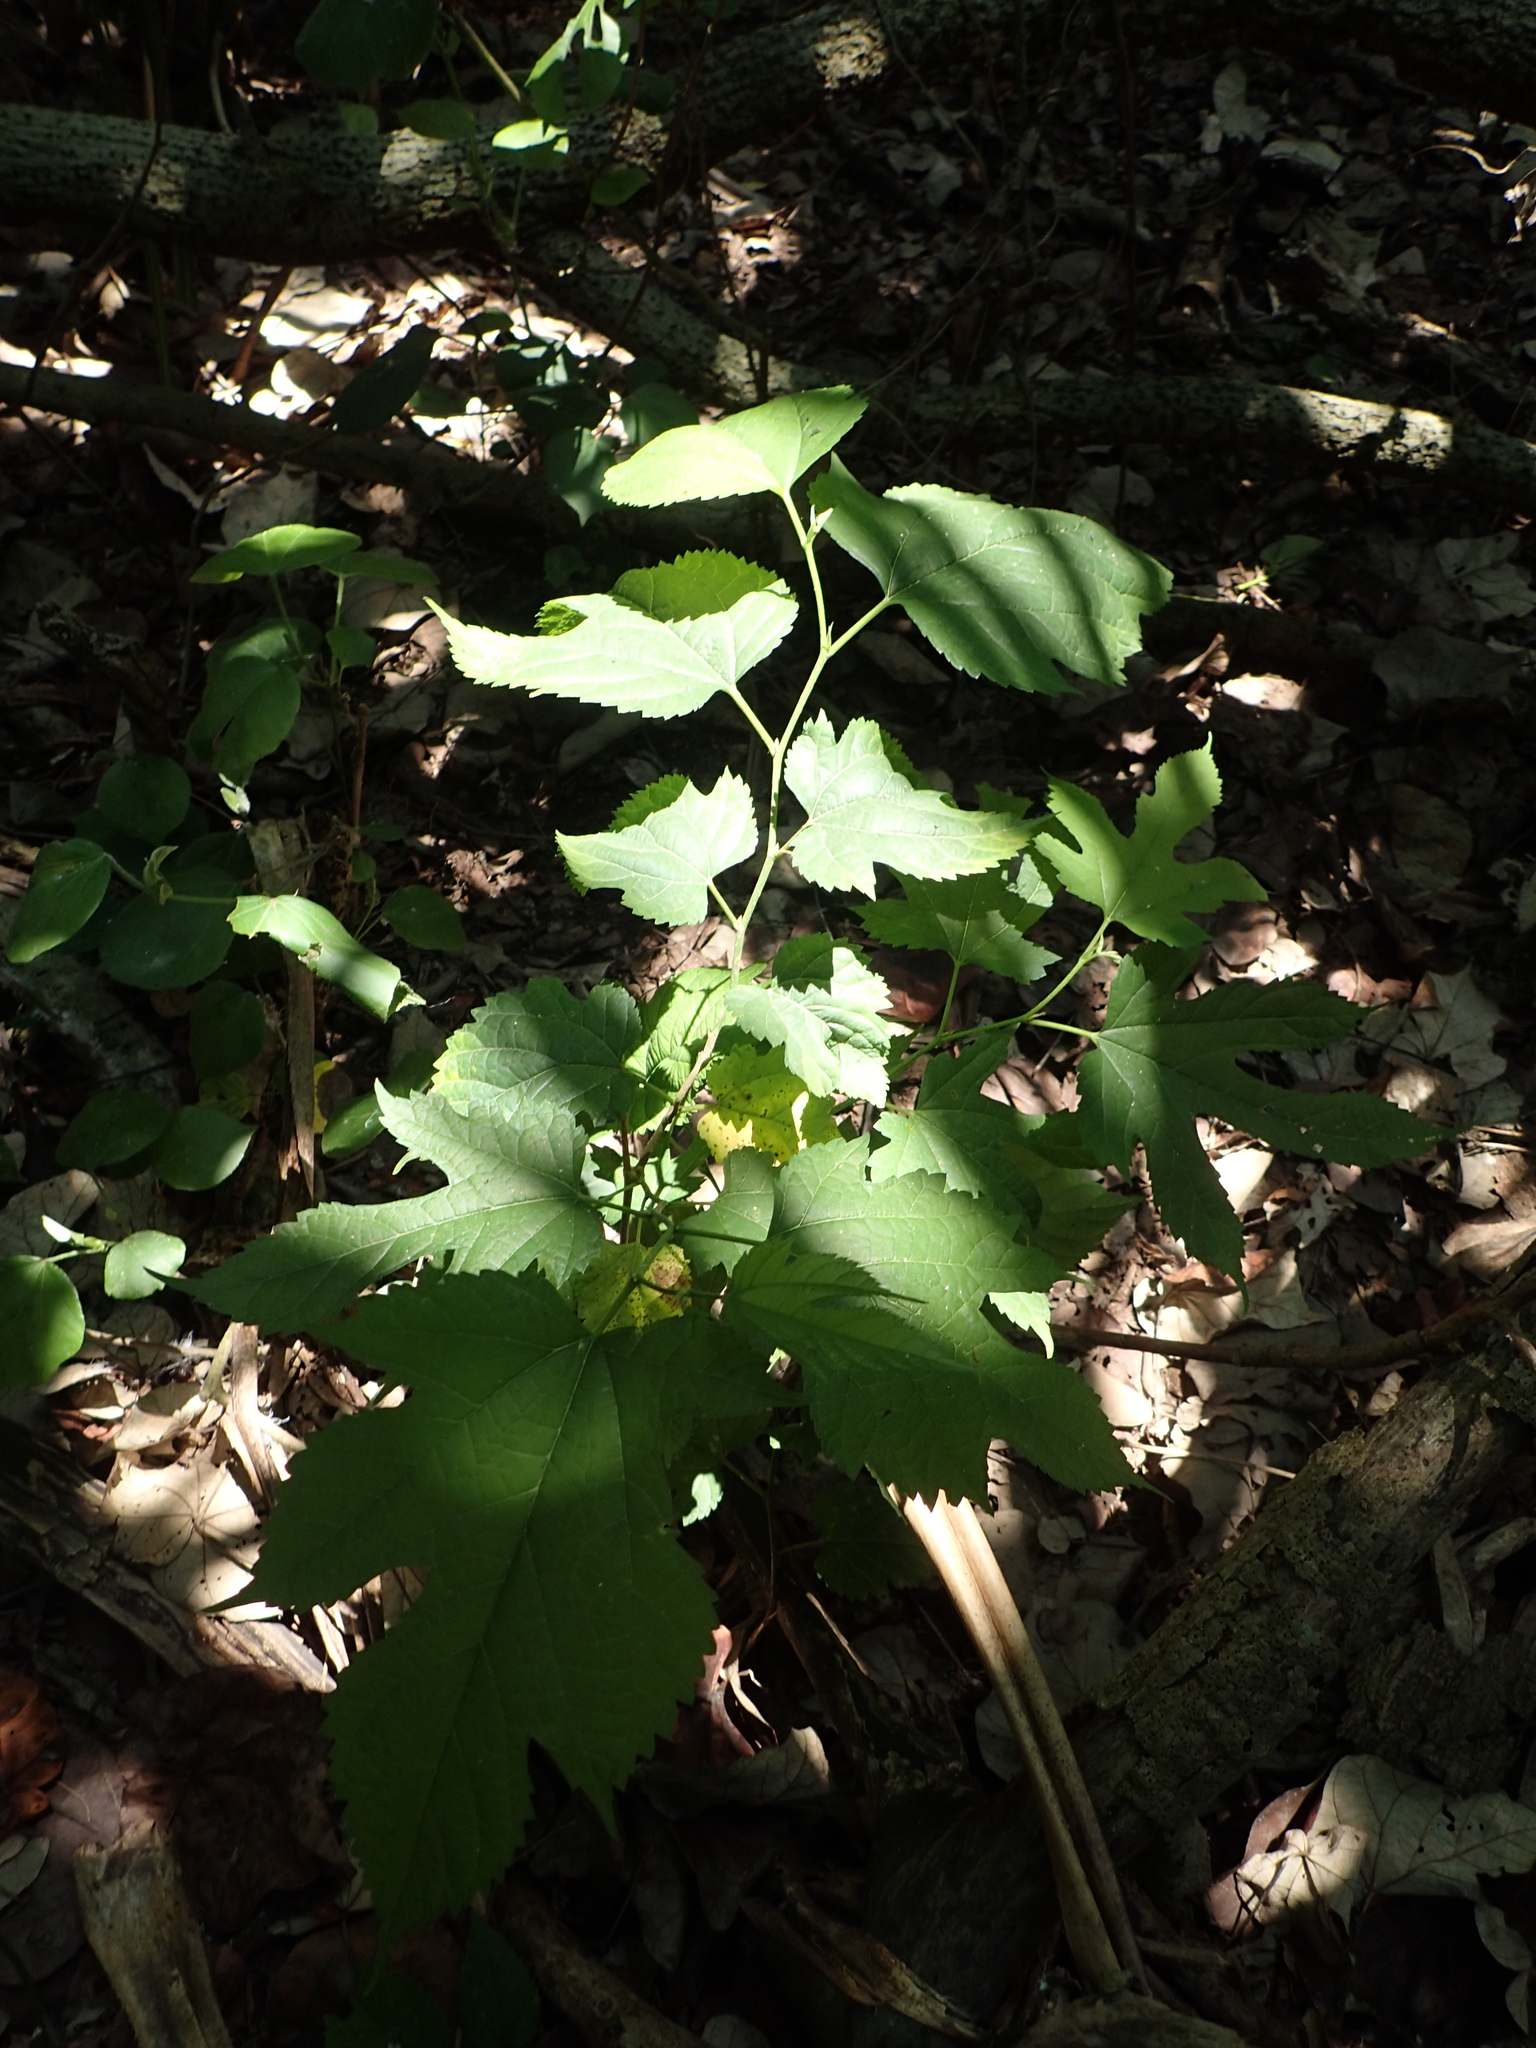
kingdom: Plantae
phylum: Tracheophyta
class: Magnoliopsida
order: Rosales
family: Moraceae
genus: Morus
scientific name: Morus indica
